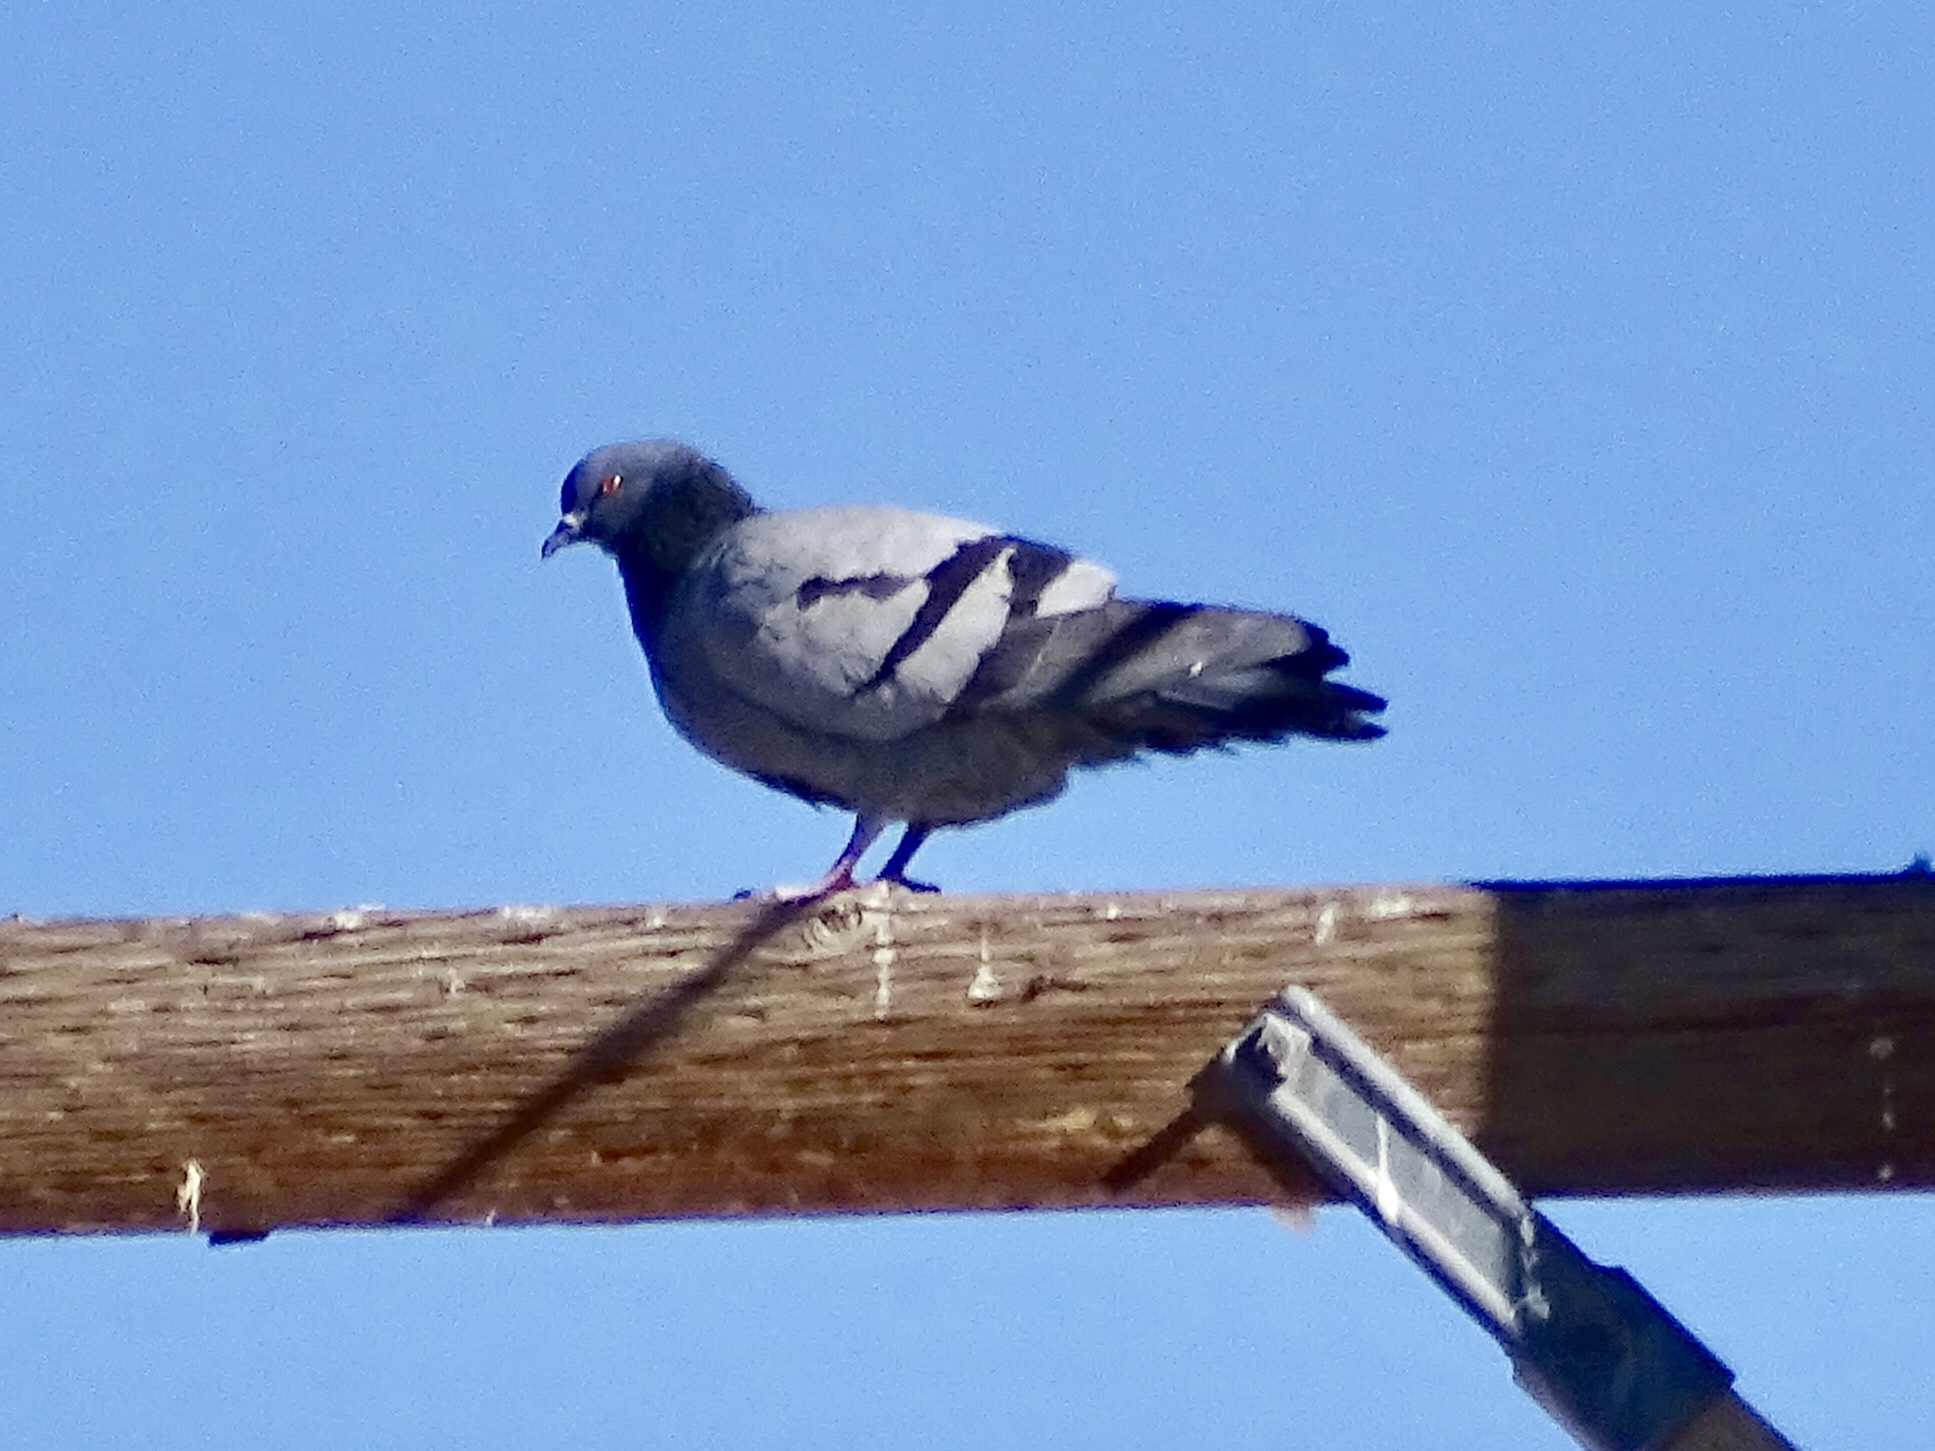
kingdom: Animalia
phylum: Chordata
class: Aves
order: Columbiformes
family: Columbidae
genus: Columba
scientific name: Columba livia
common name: Rock pigeon
